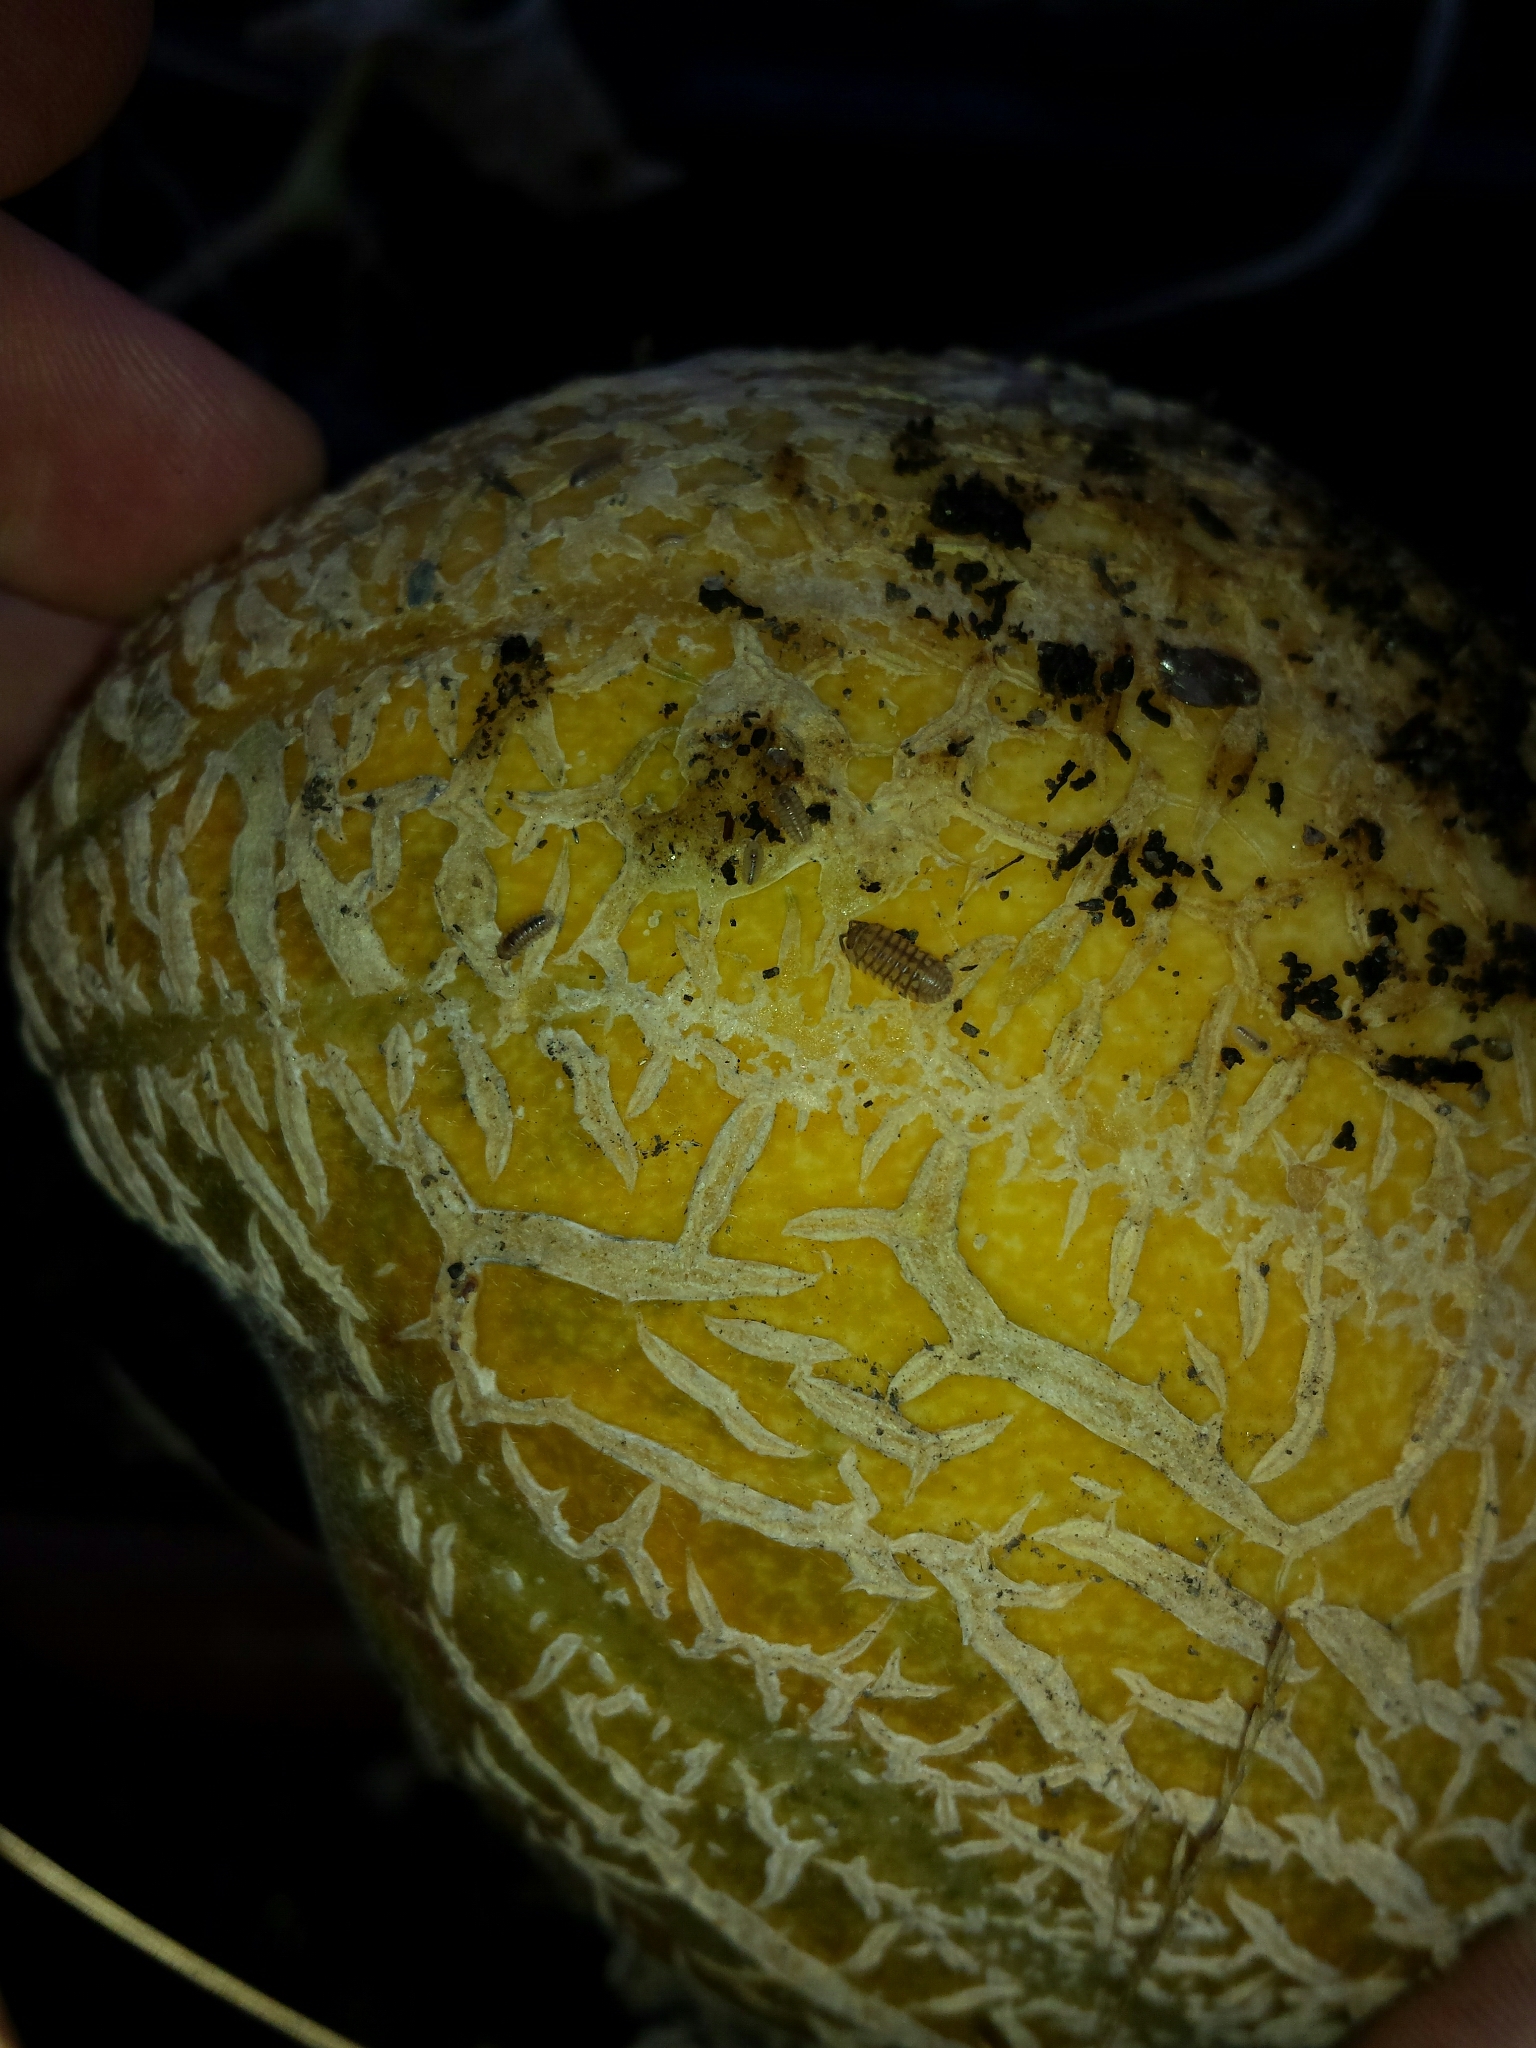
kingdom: Animalia
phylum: Arthropoda
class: Malacostraca
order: Isopoda
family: Armadillidiidae
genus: Armadillidium
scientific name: Armadillidium nasatum
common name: Isopod
